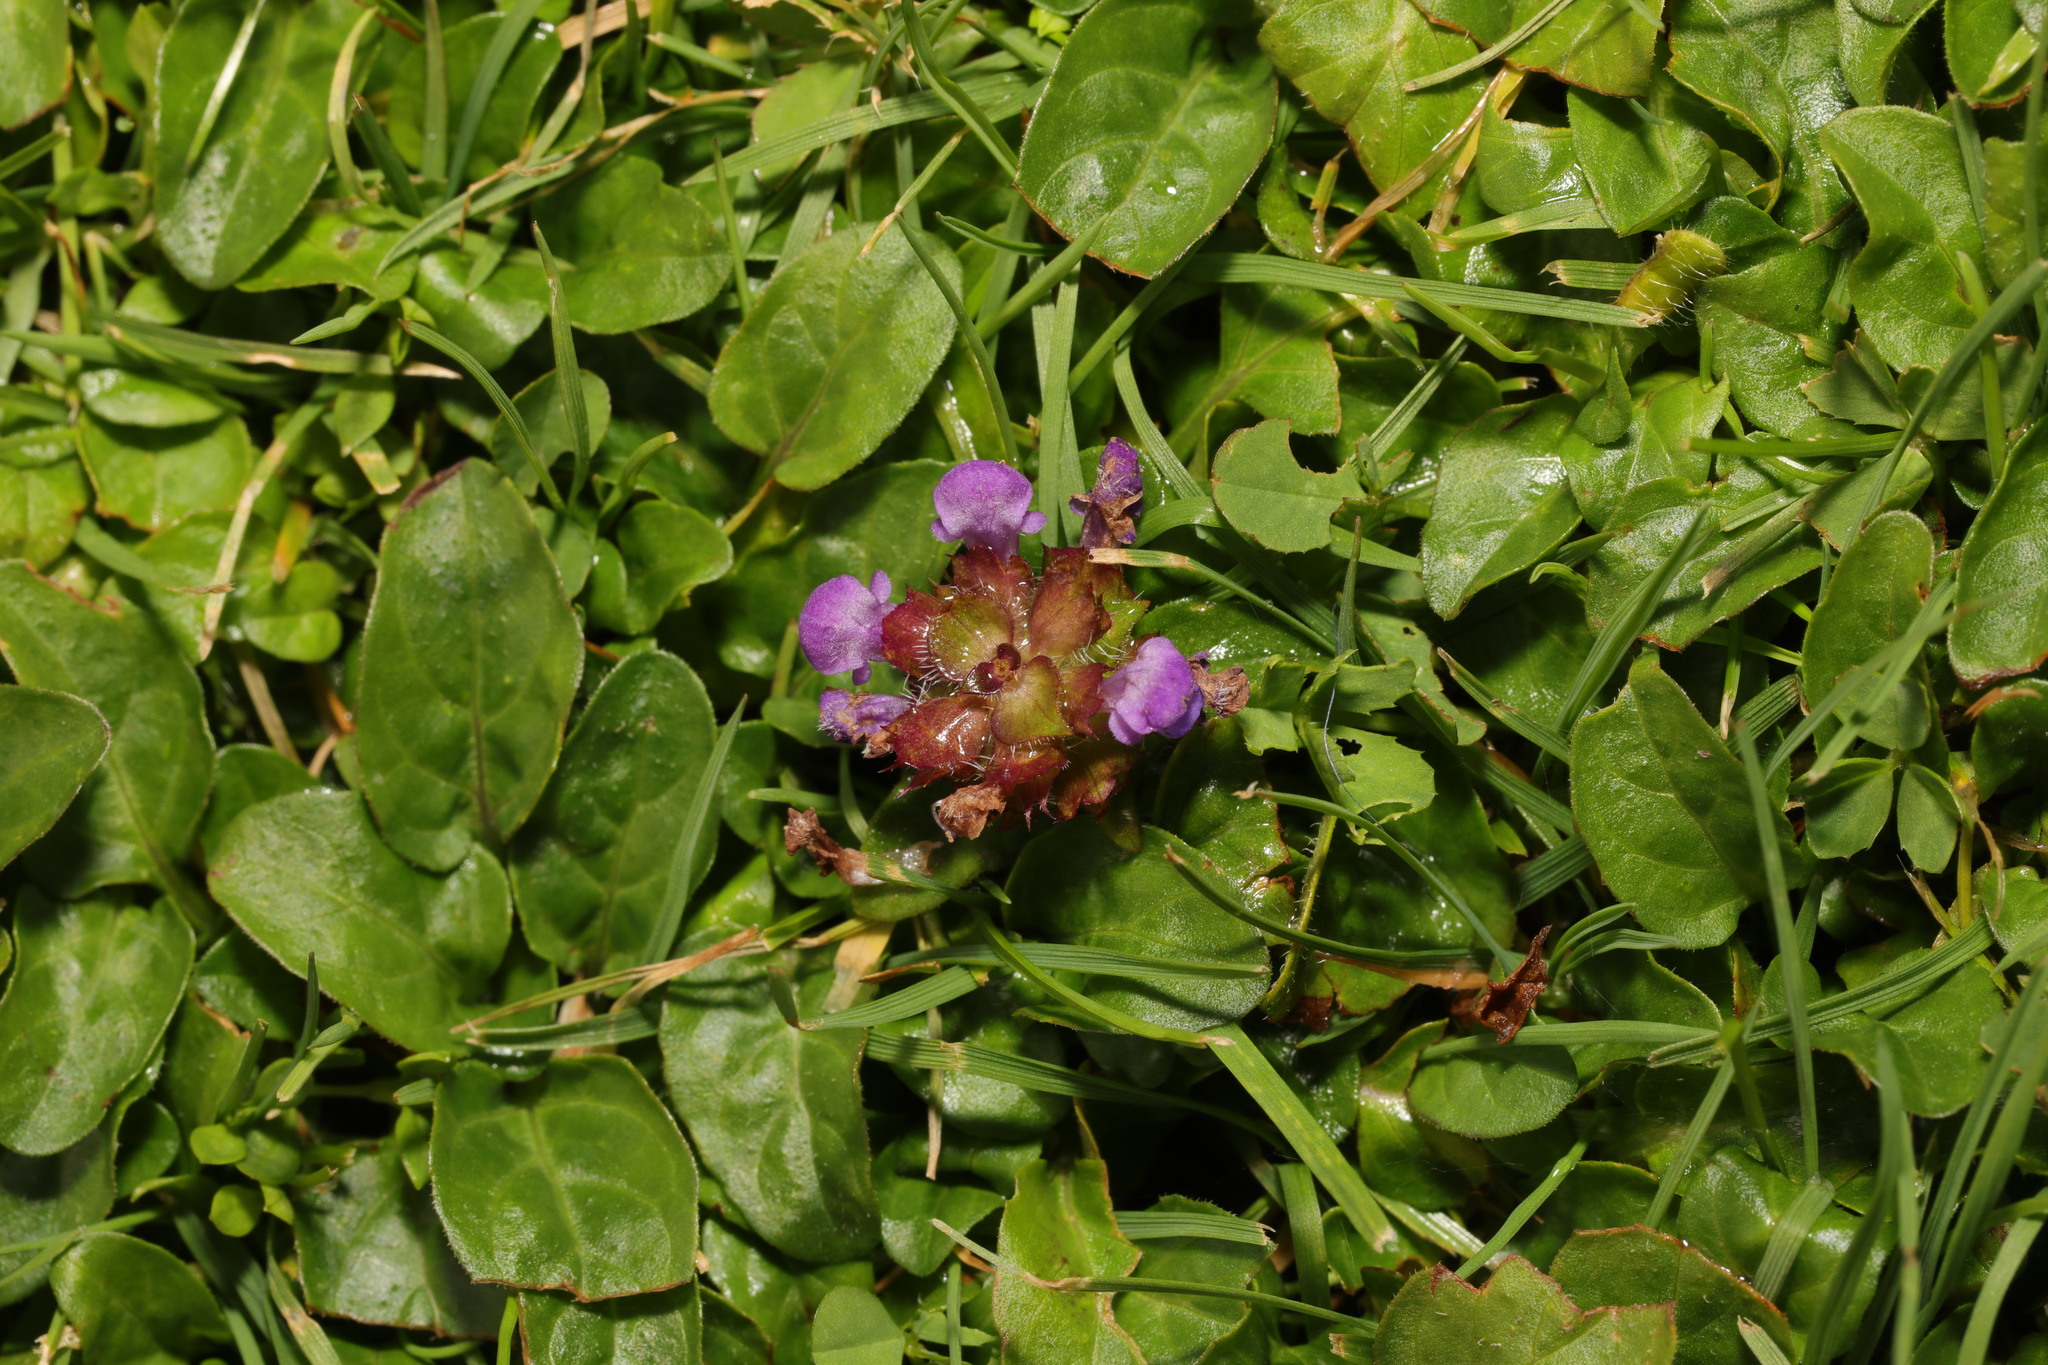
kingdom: Plantae
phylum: Tracheophyta
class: Magnoliopsida
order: Lamiales
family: Lamiaceae
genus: Prunella
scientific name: Prunella vulgaris
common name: Heal-all
